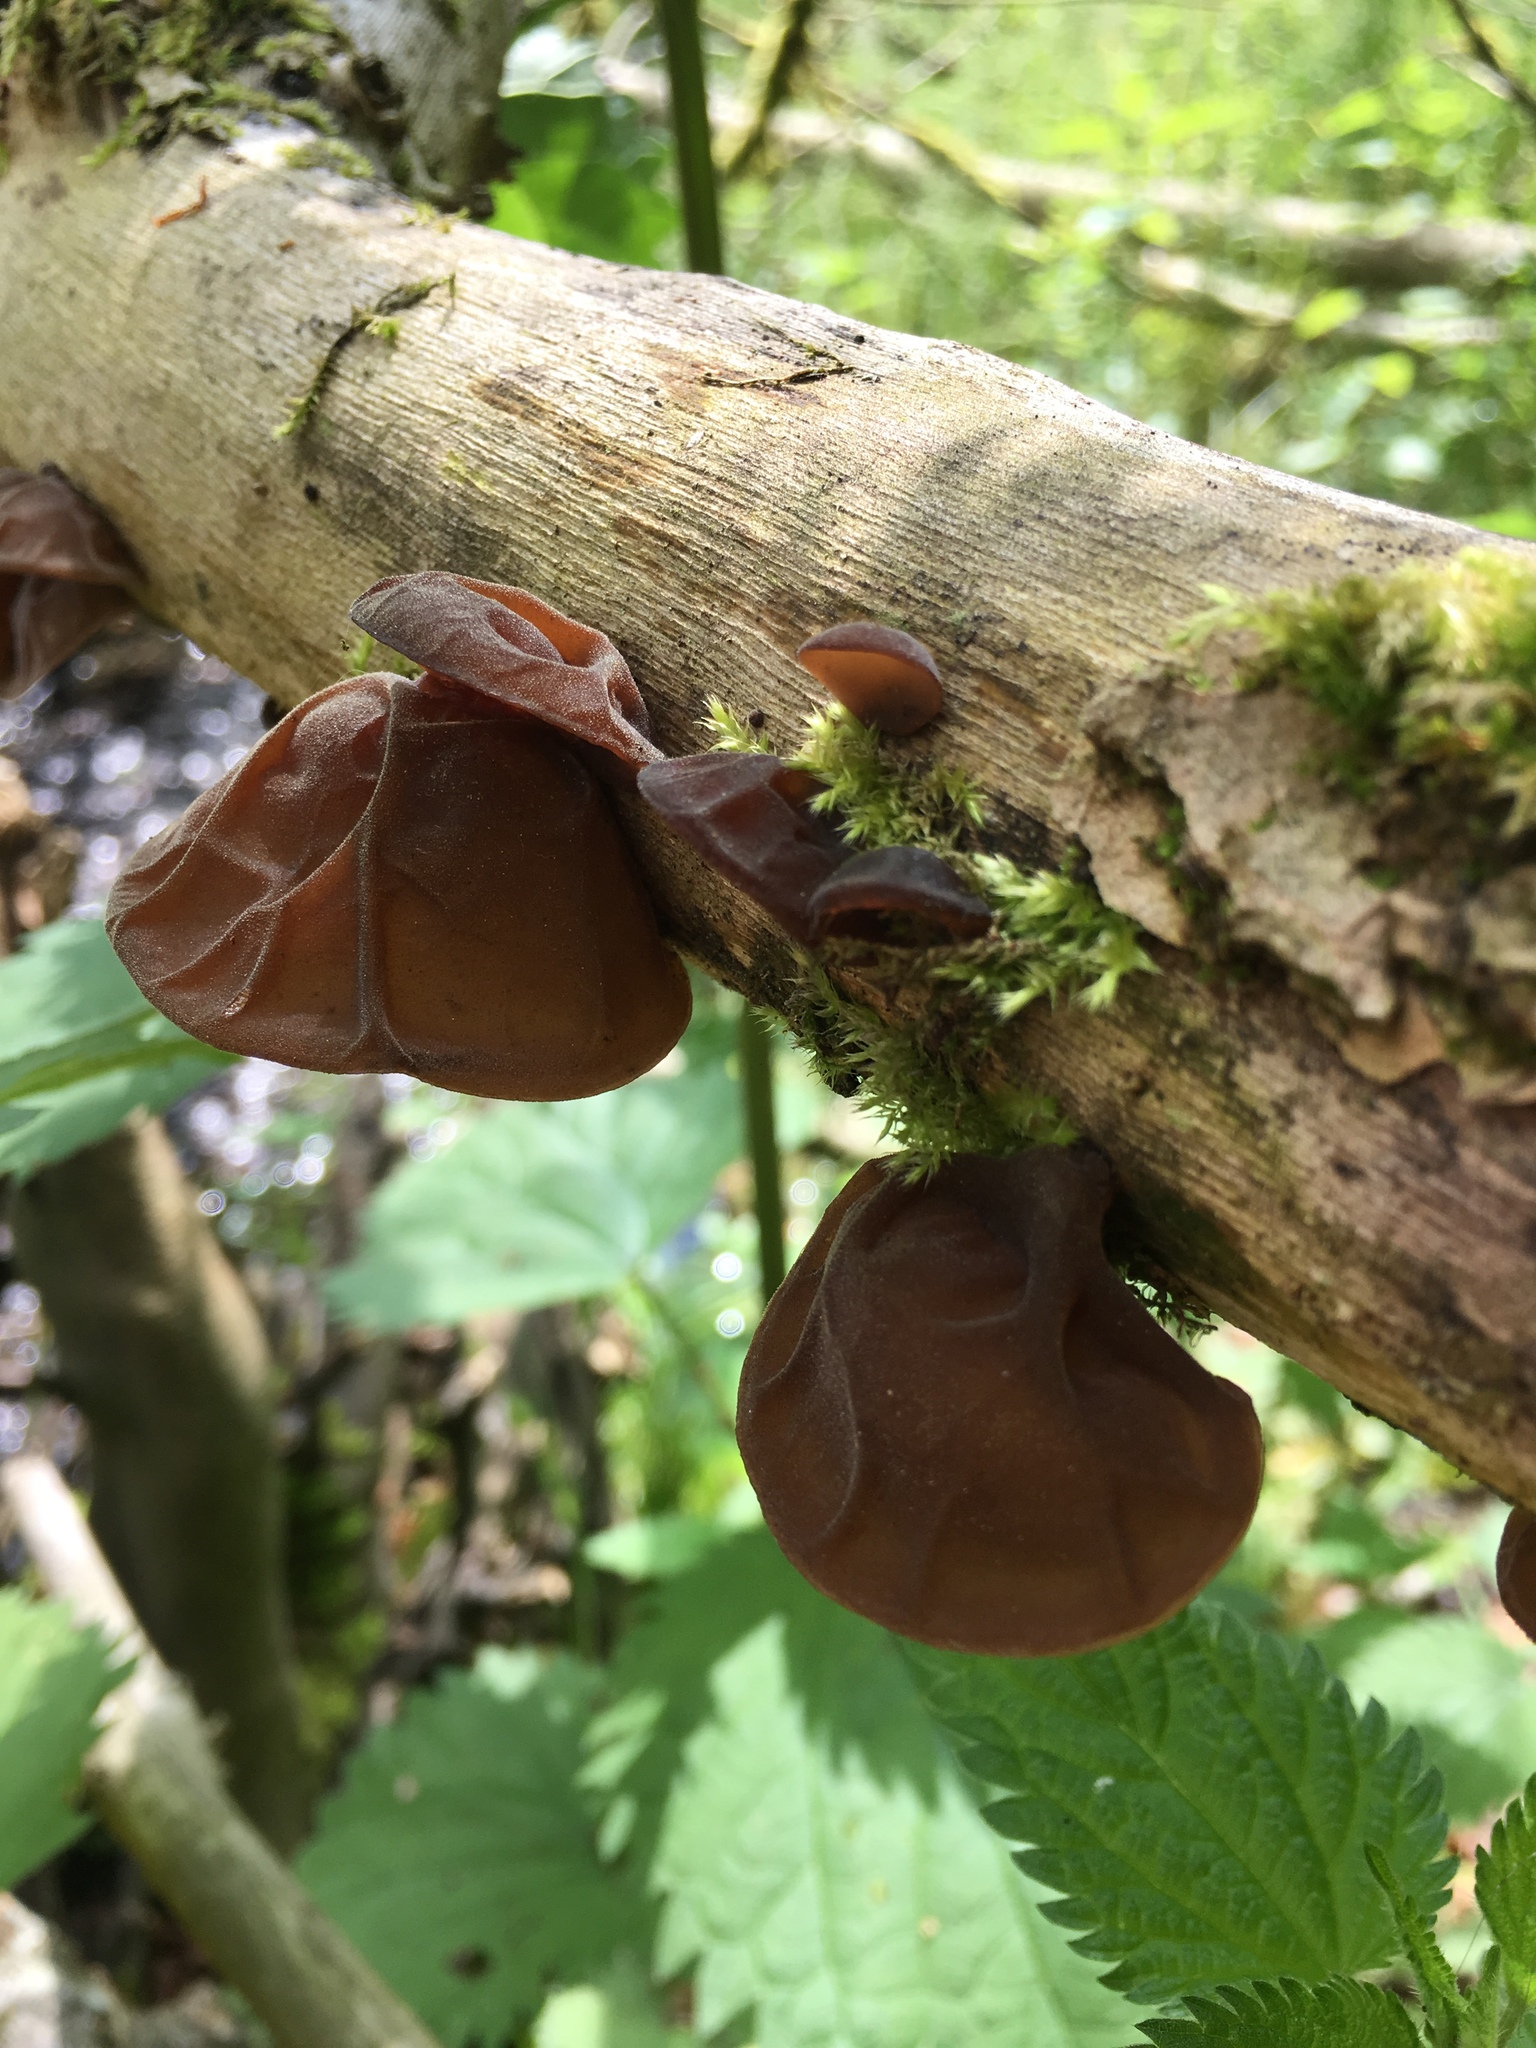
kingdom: Fungi
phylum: Basidiomycota
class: Agaricomycetes
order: Auriculariales
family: Auriculariaceae
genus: Auricularia
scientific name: Auricularia auricula-judae
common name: Jelly ear
